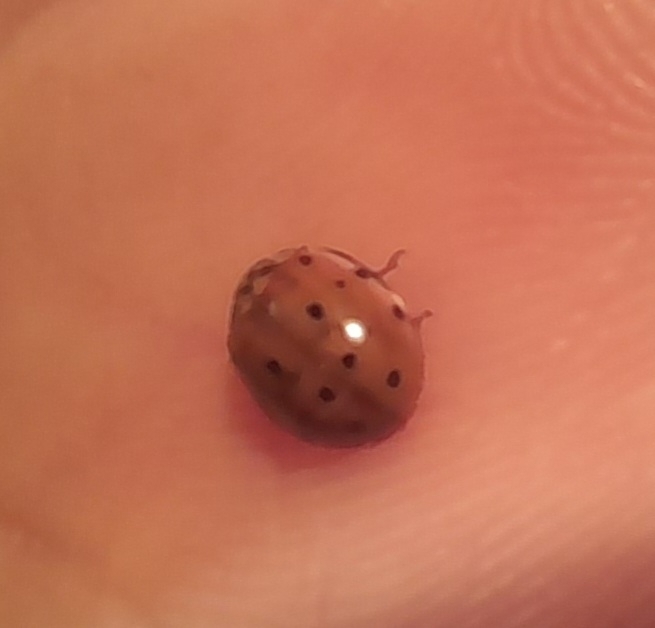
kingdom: Animalia
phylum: Arthropoda
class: Insecta
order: Coleoptera
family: Coccinellidae
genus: Harmonia
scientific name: Harmonia quadripunctata
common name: Cream-streaked ladybird
